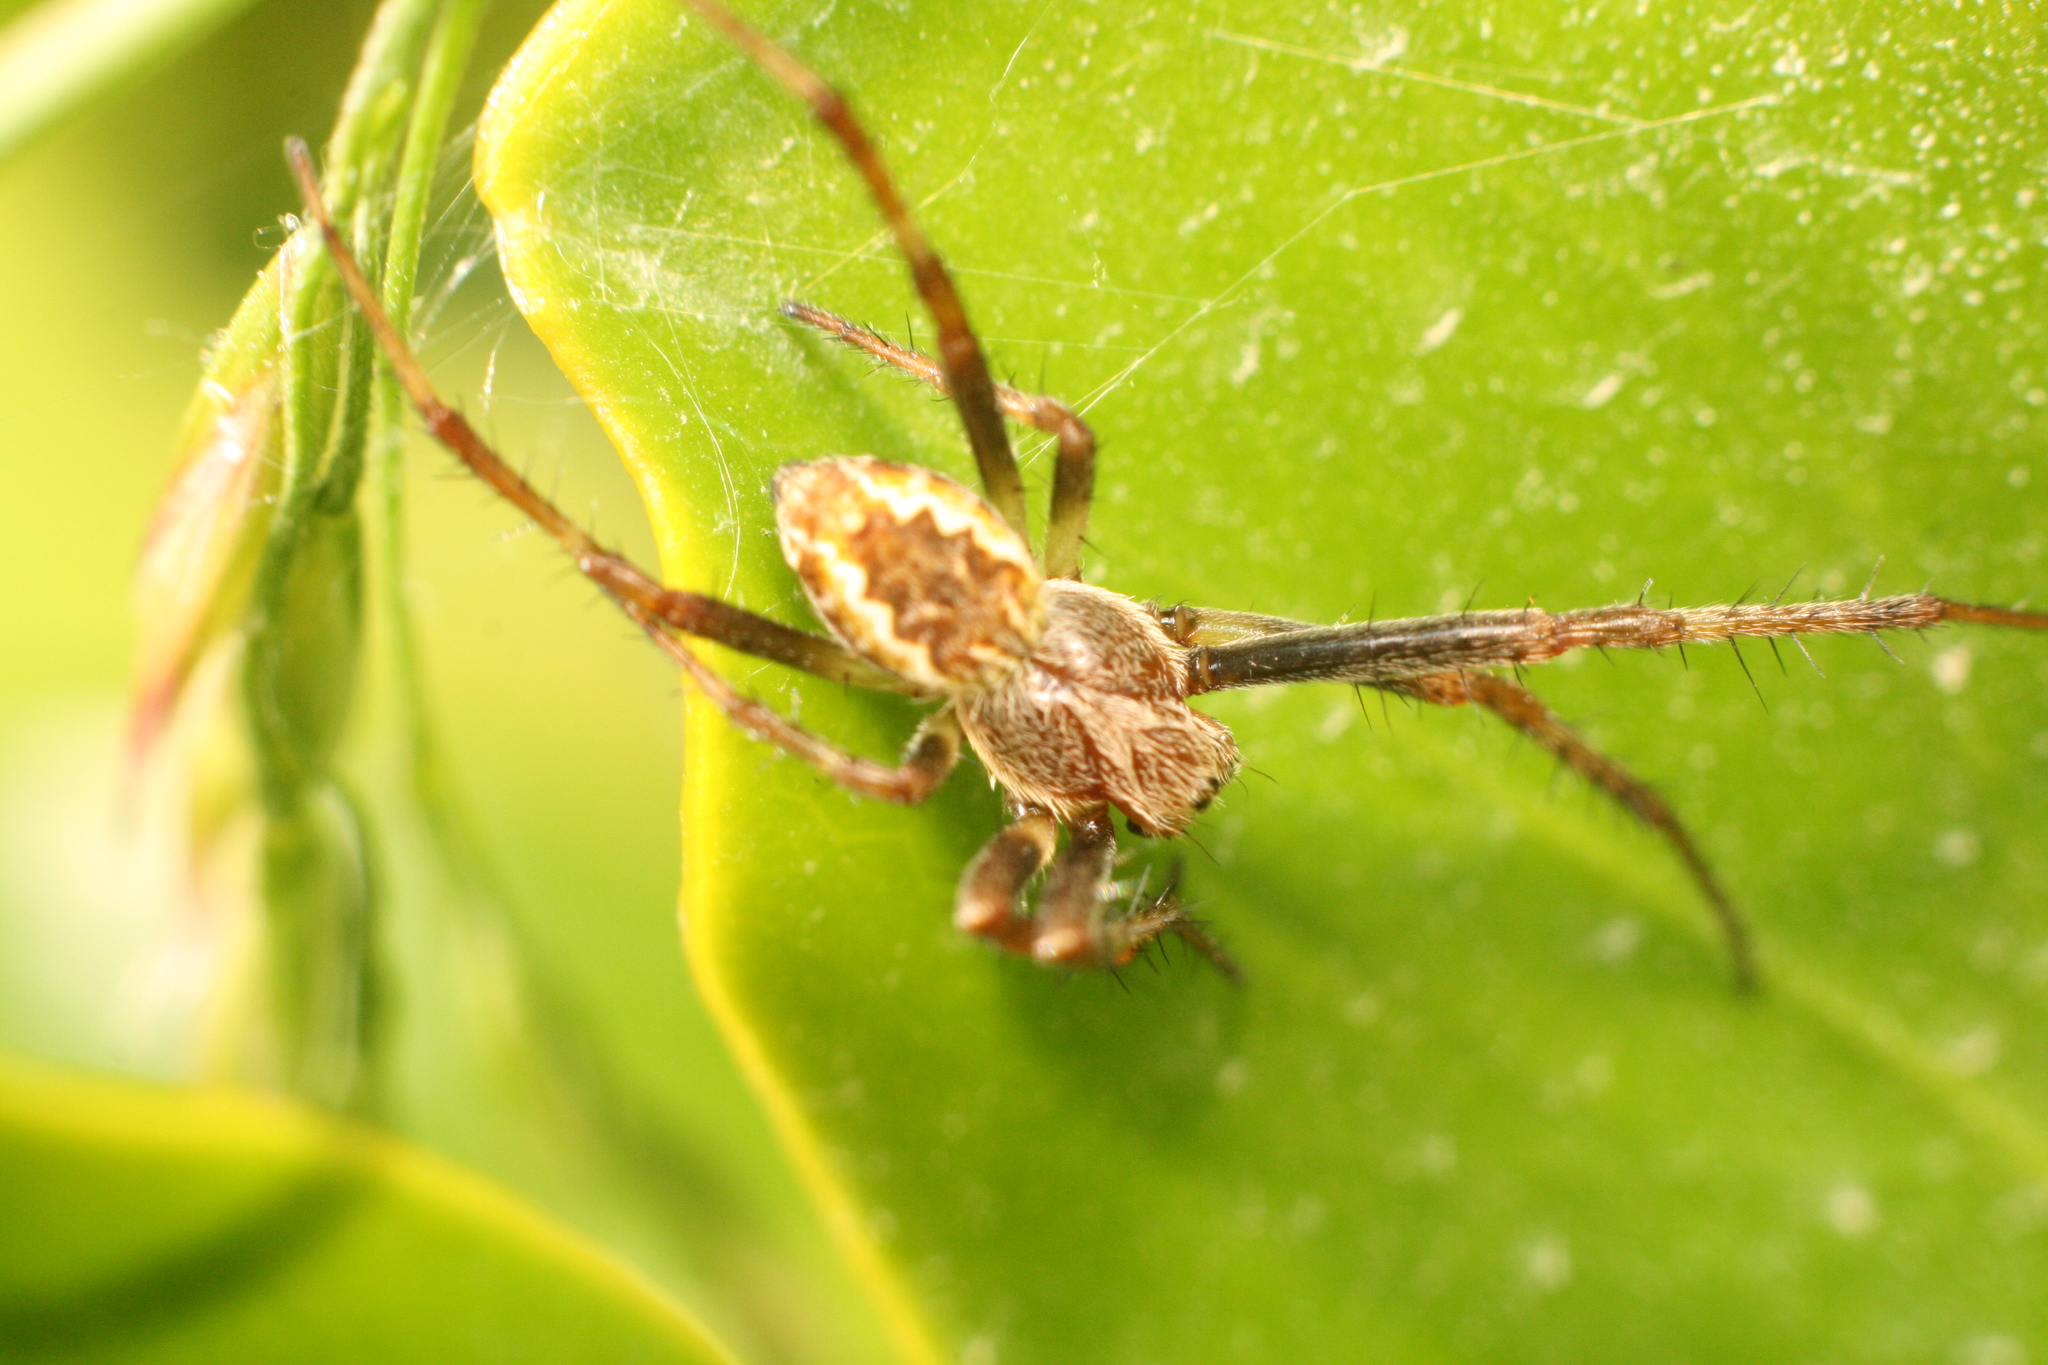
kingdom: Animalia
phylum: Arthropoda
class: Arachnida
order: Araneae
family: Araneidae
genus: Salsa
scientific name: Salsa fuliginata
